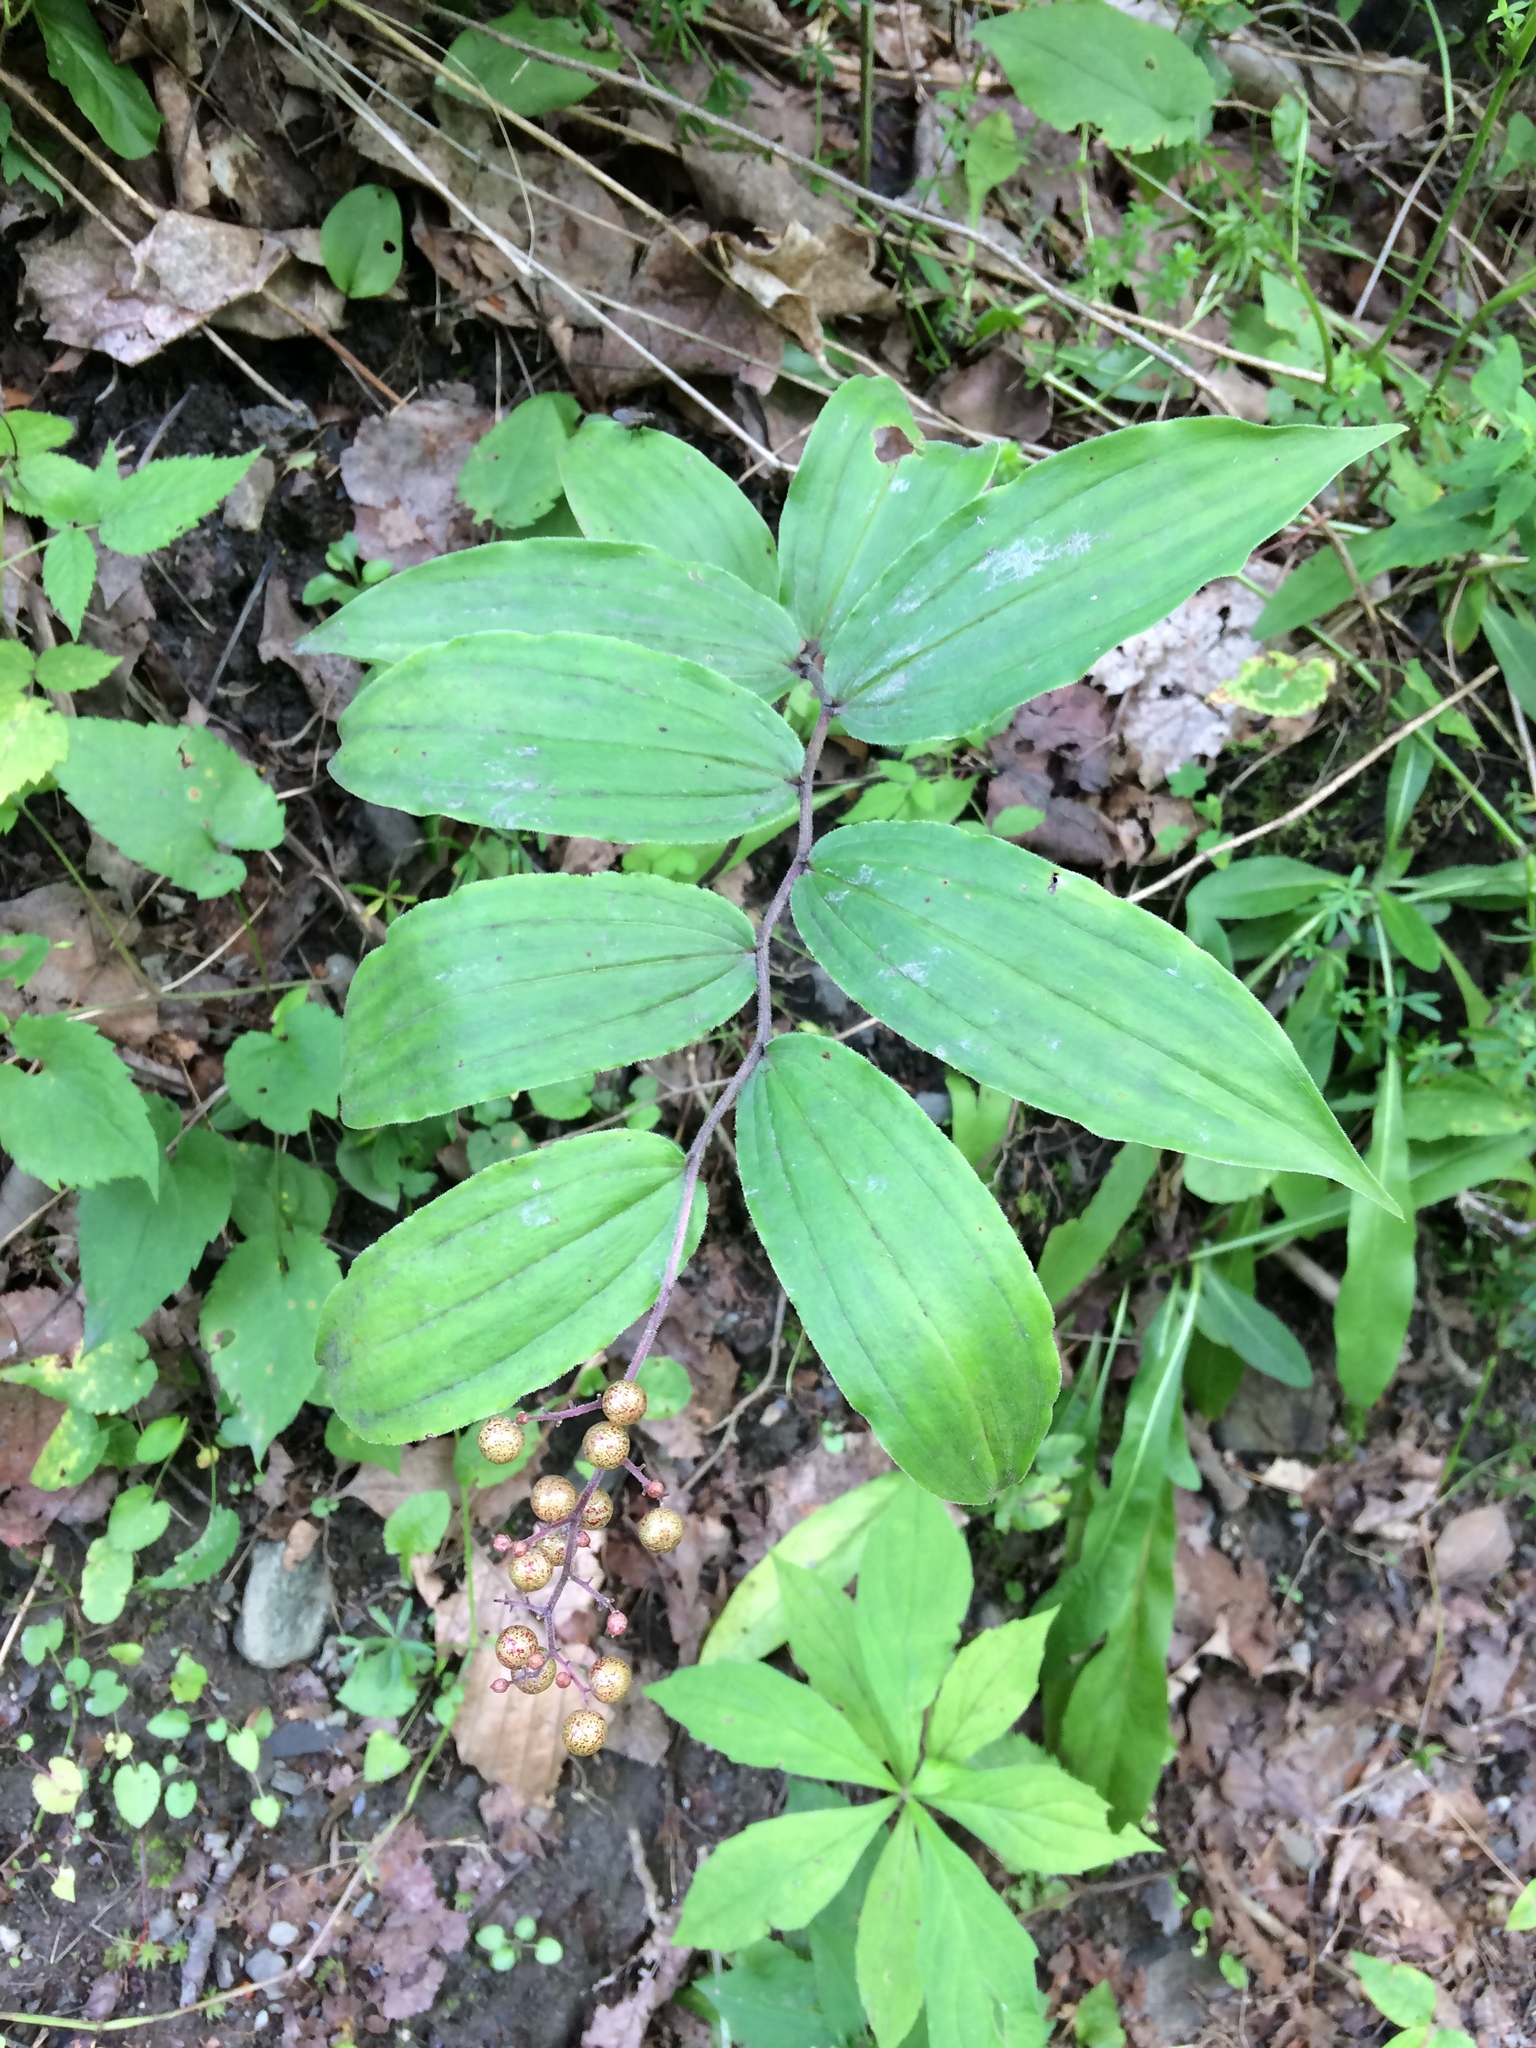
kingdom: Plantae
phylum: Tracheophyta
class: Liliopsida
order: Asparagales
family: Asparagaceae
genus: Maianthemum
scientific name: Maianthemum racemosum
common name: False spikenard
